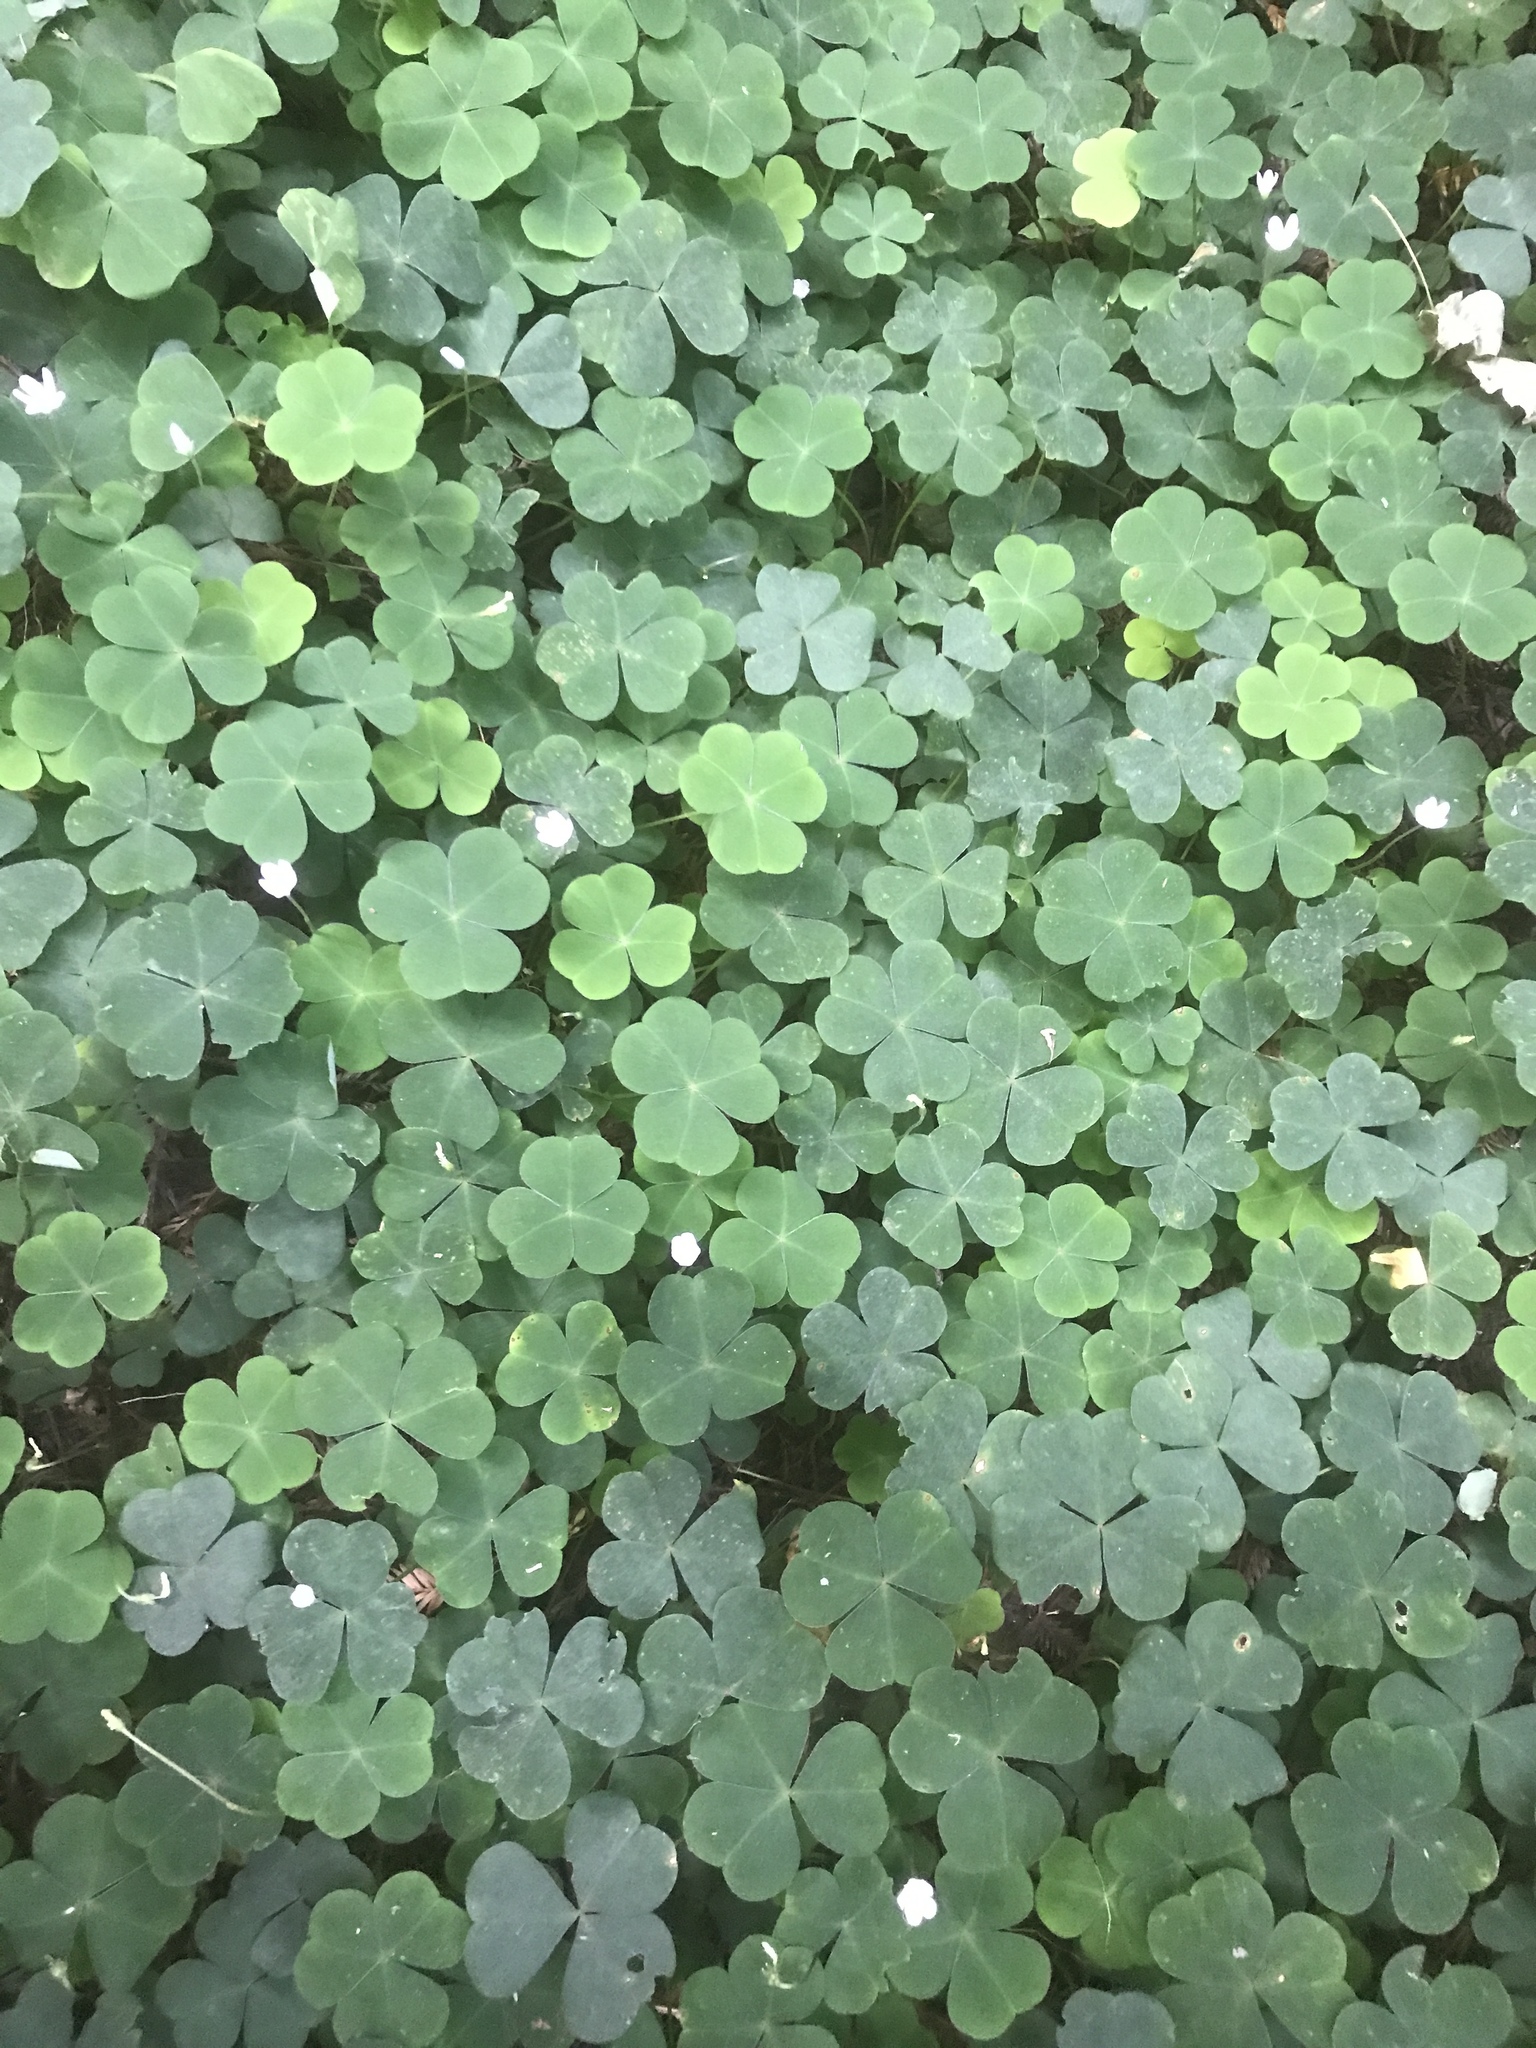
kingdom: Plantae
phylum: Tracheophyta
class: Magnoliopsida
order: Oxalidales
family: Oxalidaceae
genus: Oxalis
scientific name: Oxalis oregana
